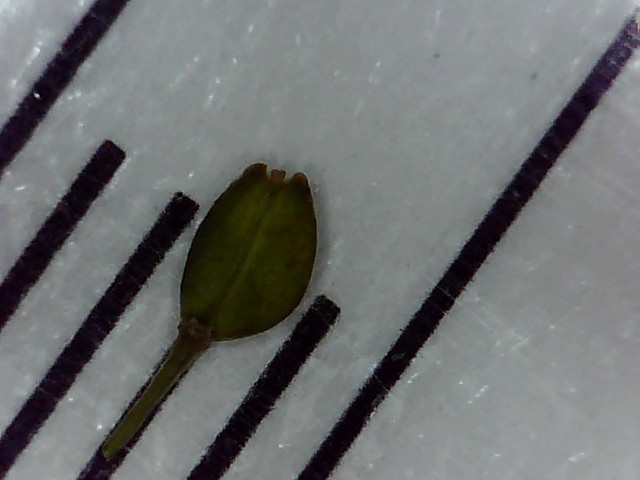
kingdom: Plantae
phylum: Tracheophyta
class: Magnoliopsida
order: Brassicales
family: Brassicaceae
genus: Lepidium
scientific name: Lepidium africanum
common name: African pepperwort
